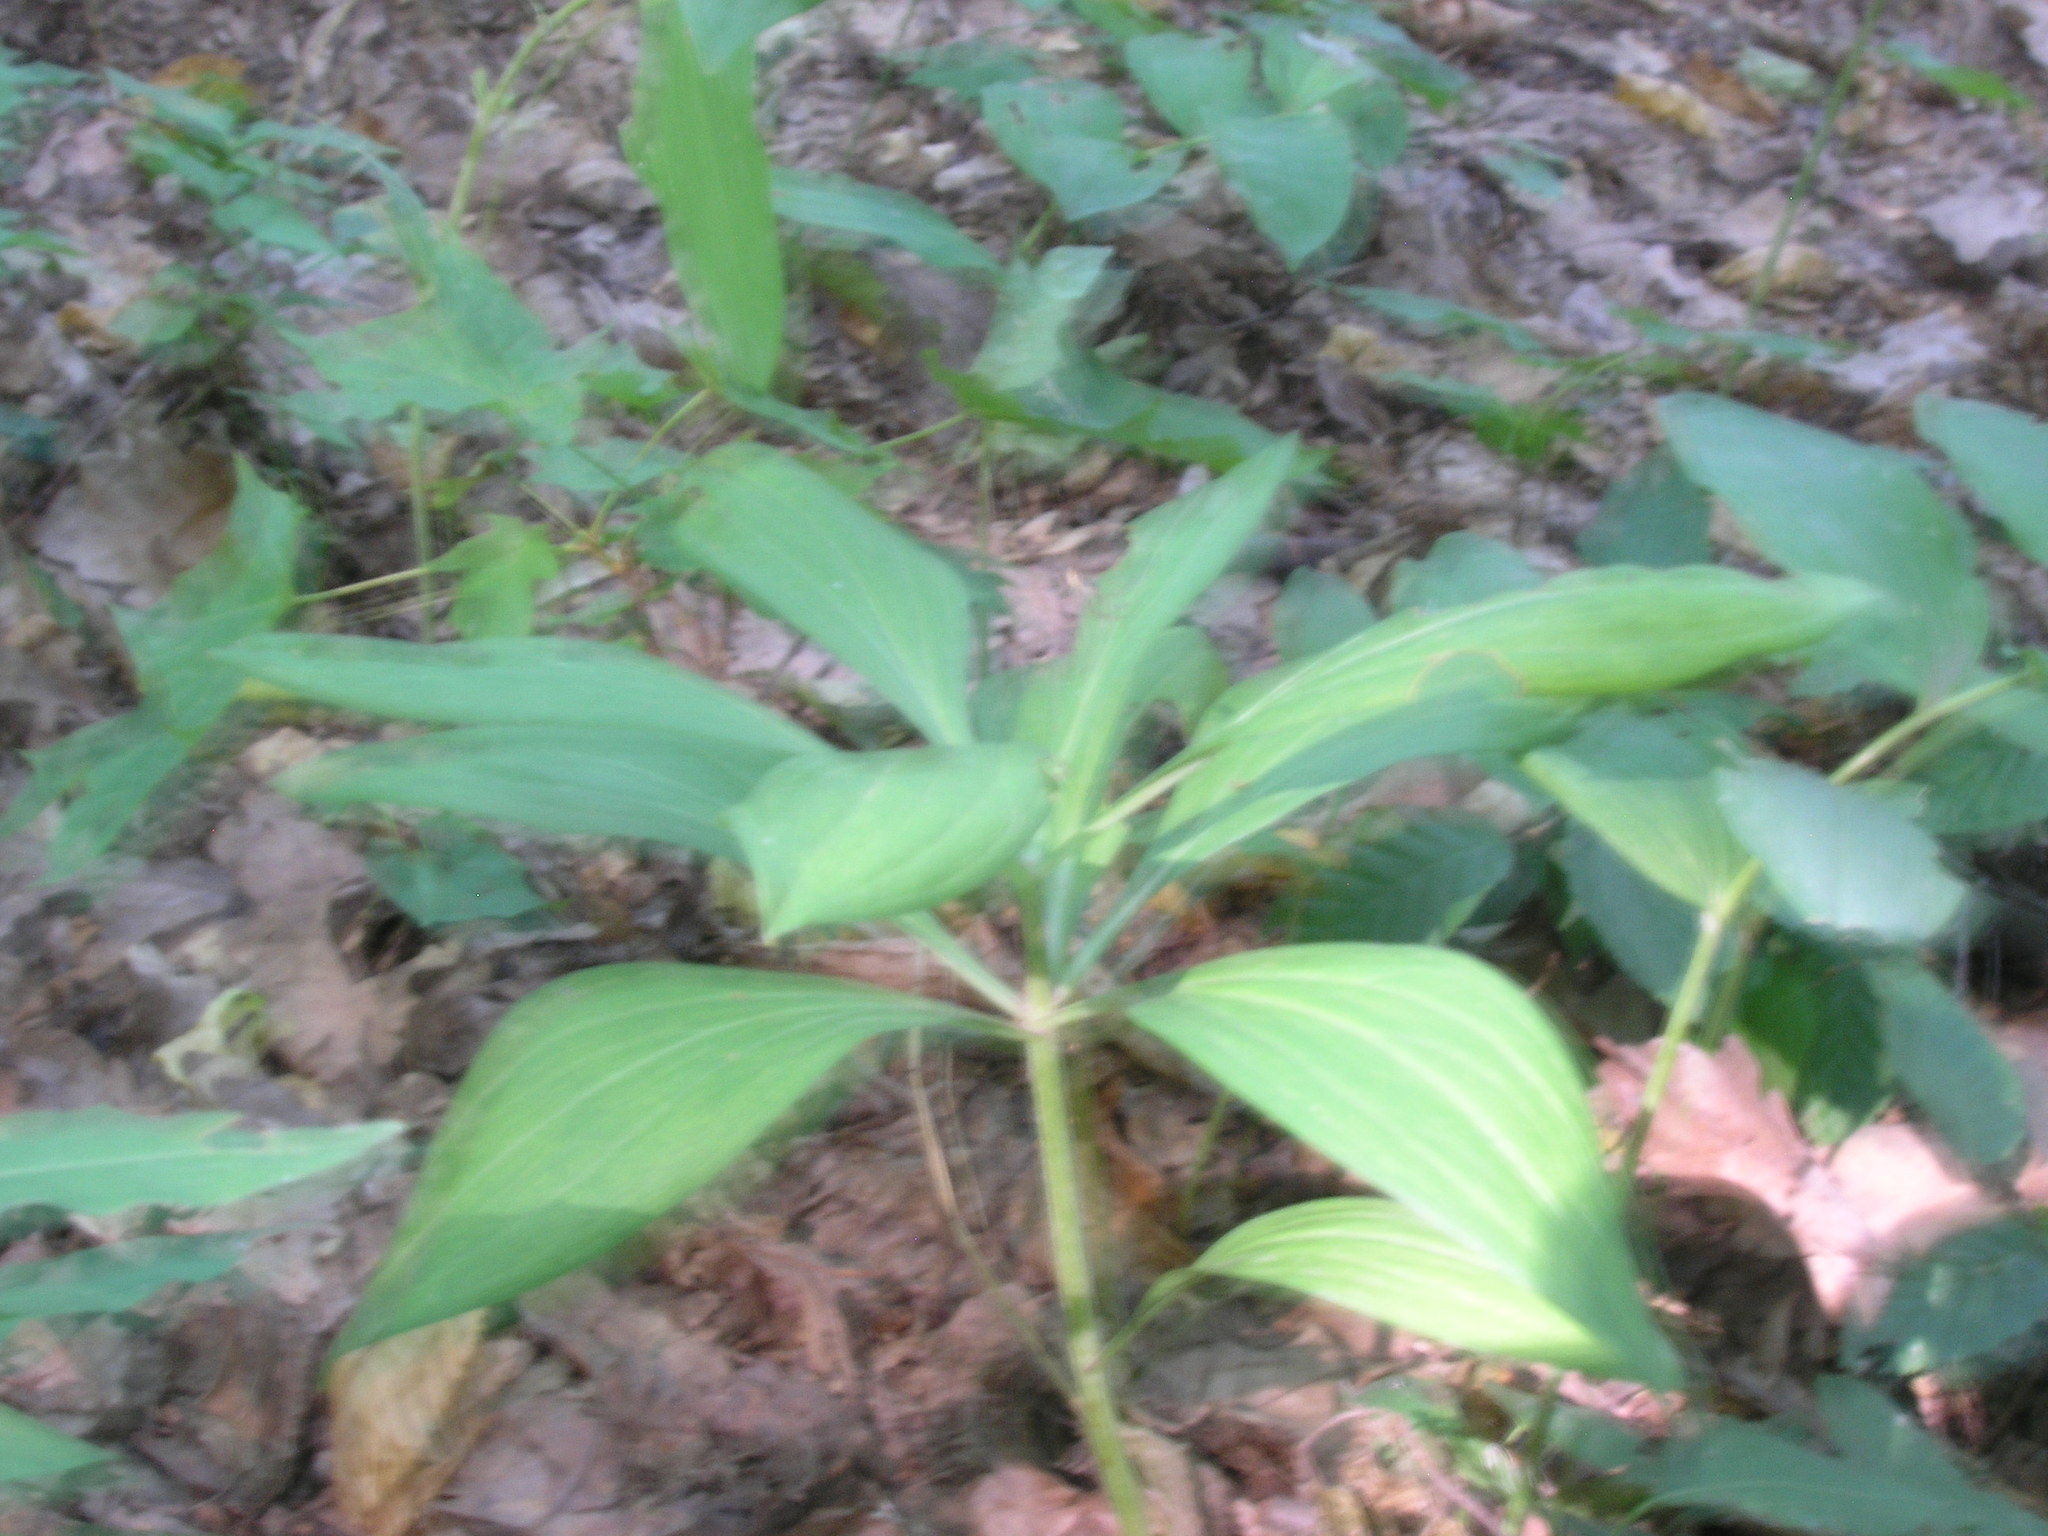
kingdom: Plantae
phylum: Tracheophyta
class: Liliopsida
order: Liliales
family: Liliaceae
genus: Lilium
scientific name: Lilium martagon
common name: Martagon lily
